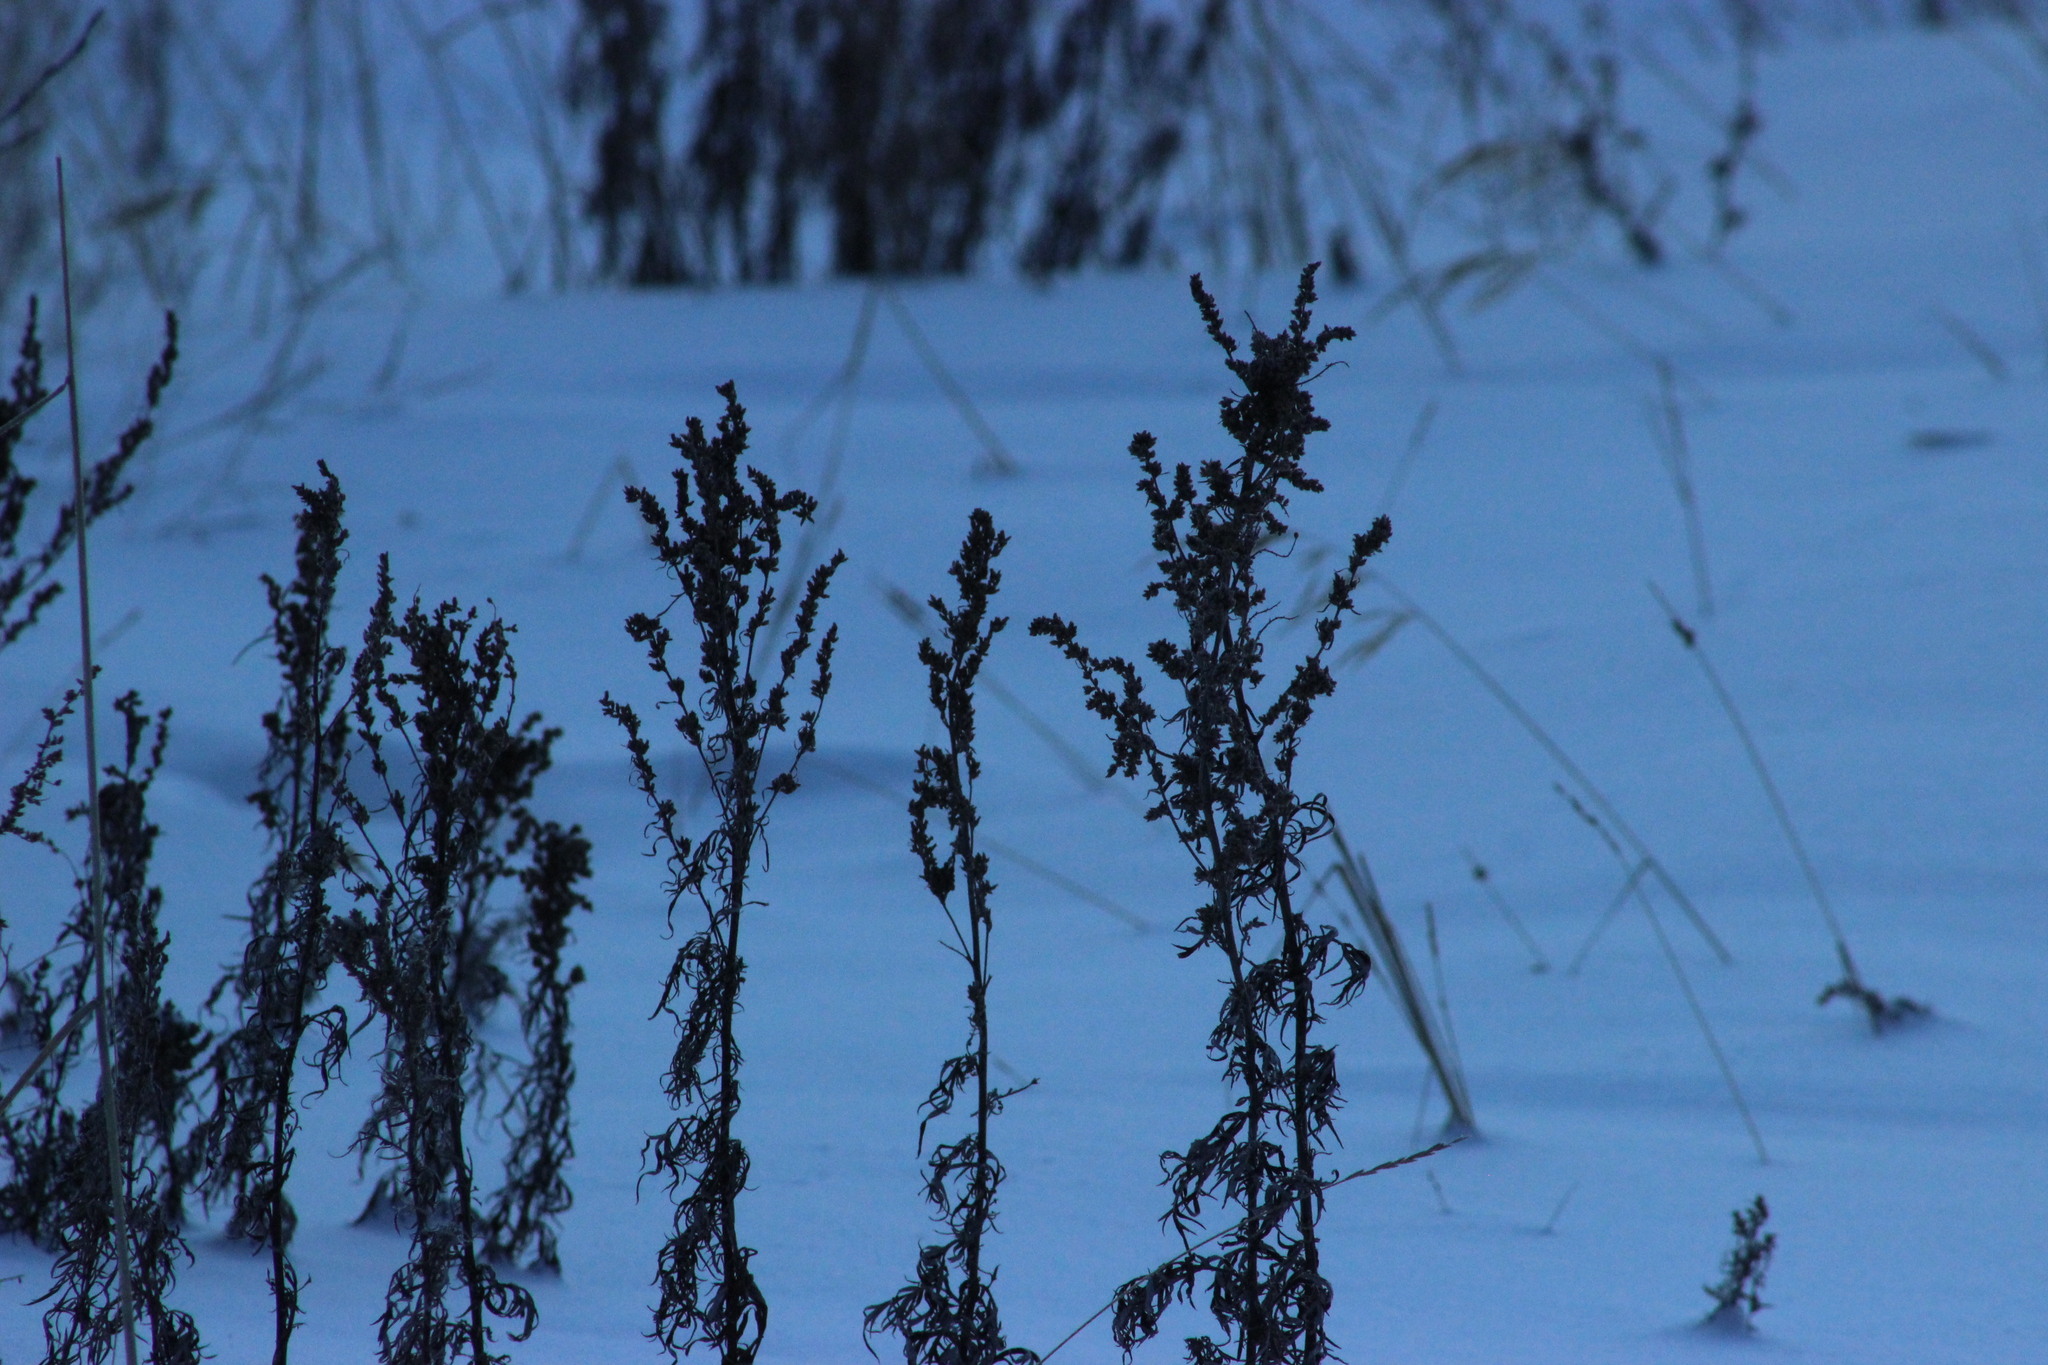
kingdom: Plantae
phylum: Tracheophyta
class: Magnoliopsida
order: Asterales
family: Asteraceae
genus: Artemisia
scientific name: Artemisia vulgaris
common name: Mugwort
